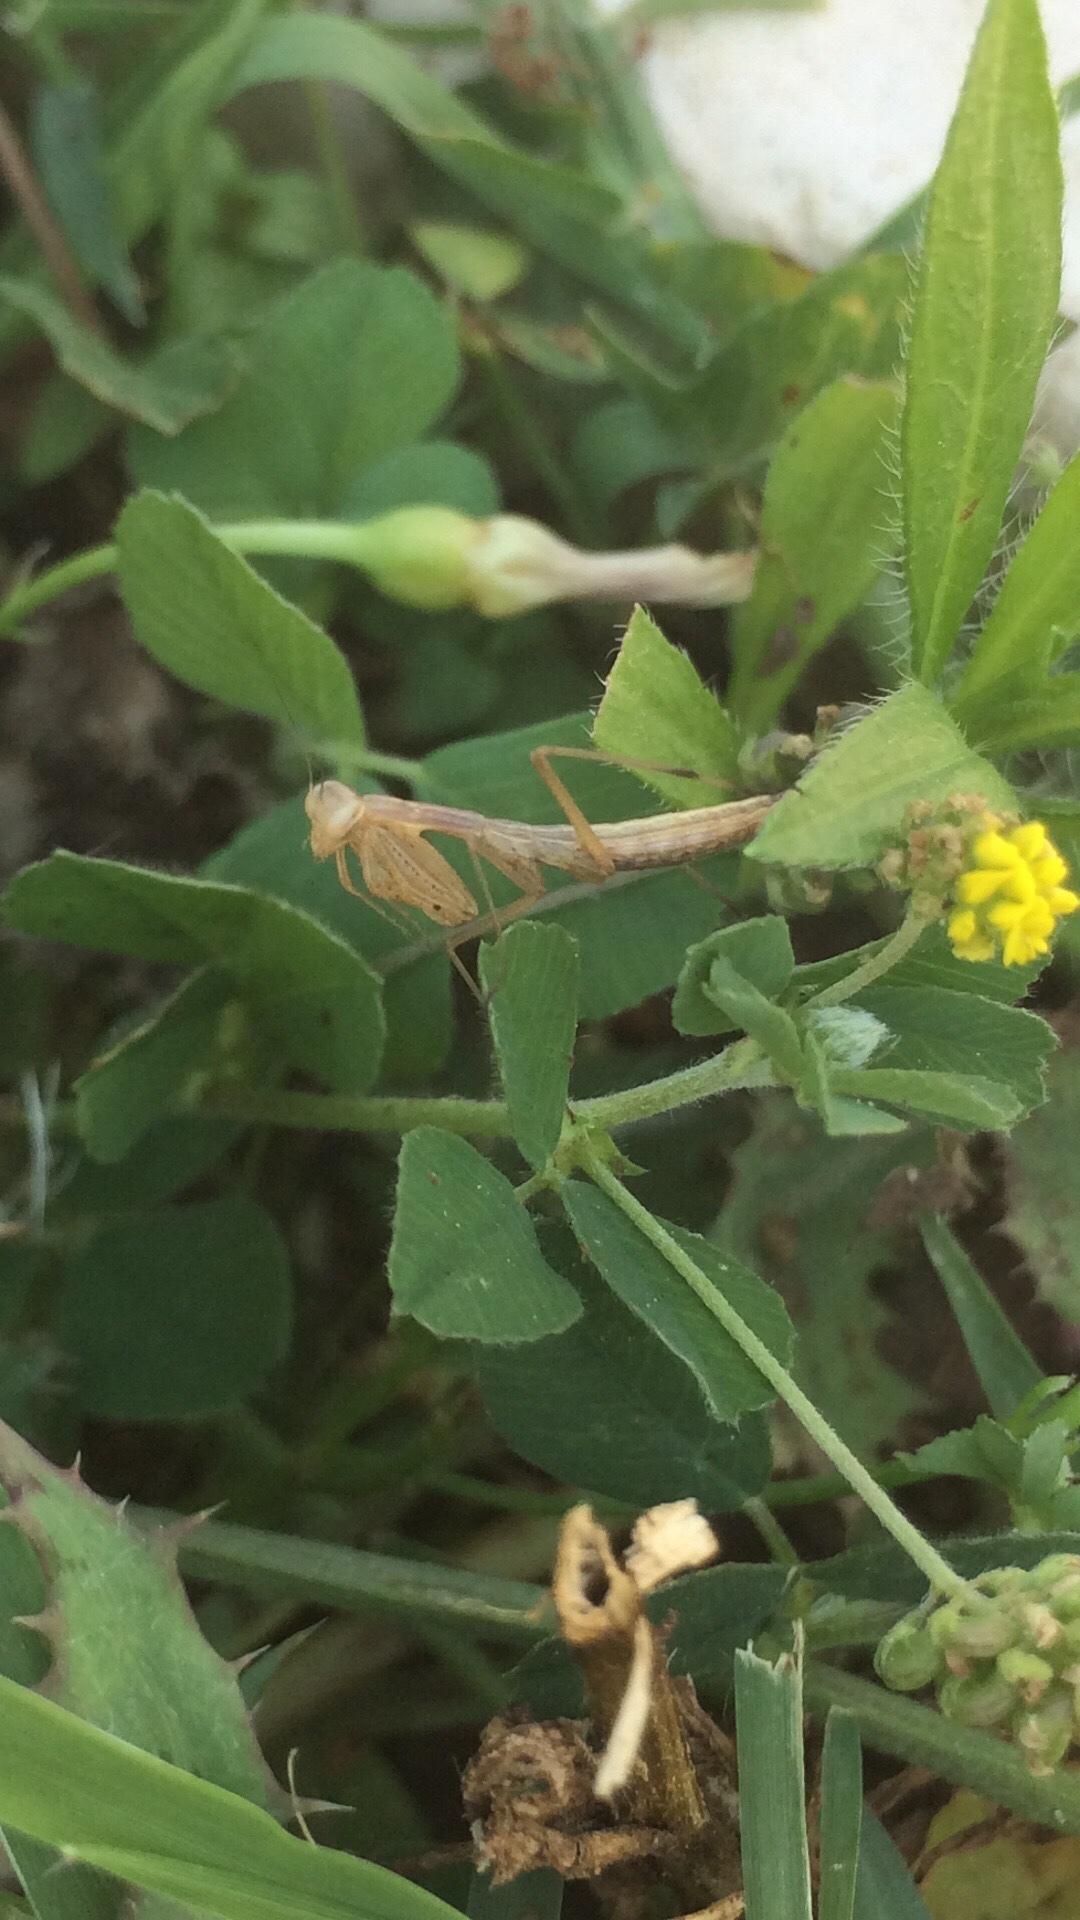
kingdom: Animalia
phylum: Arthropoda
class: Insecta
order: Mantodea
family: Mantidae
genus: Mantis
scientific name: Mantis religiosa
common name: Praying mantis
